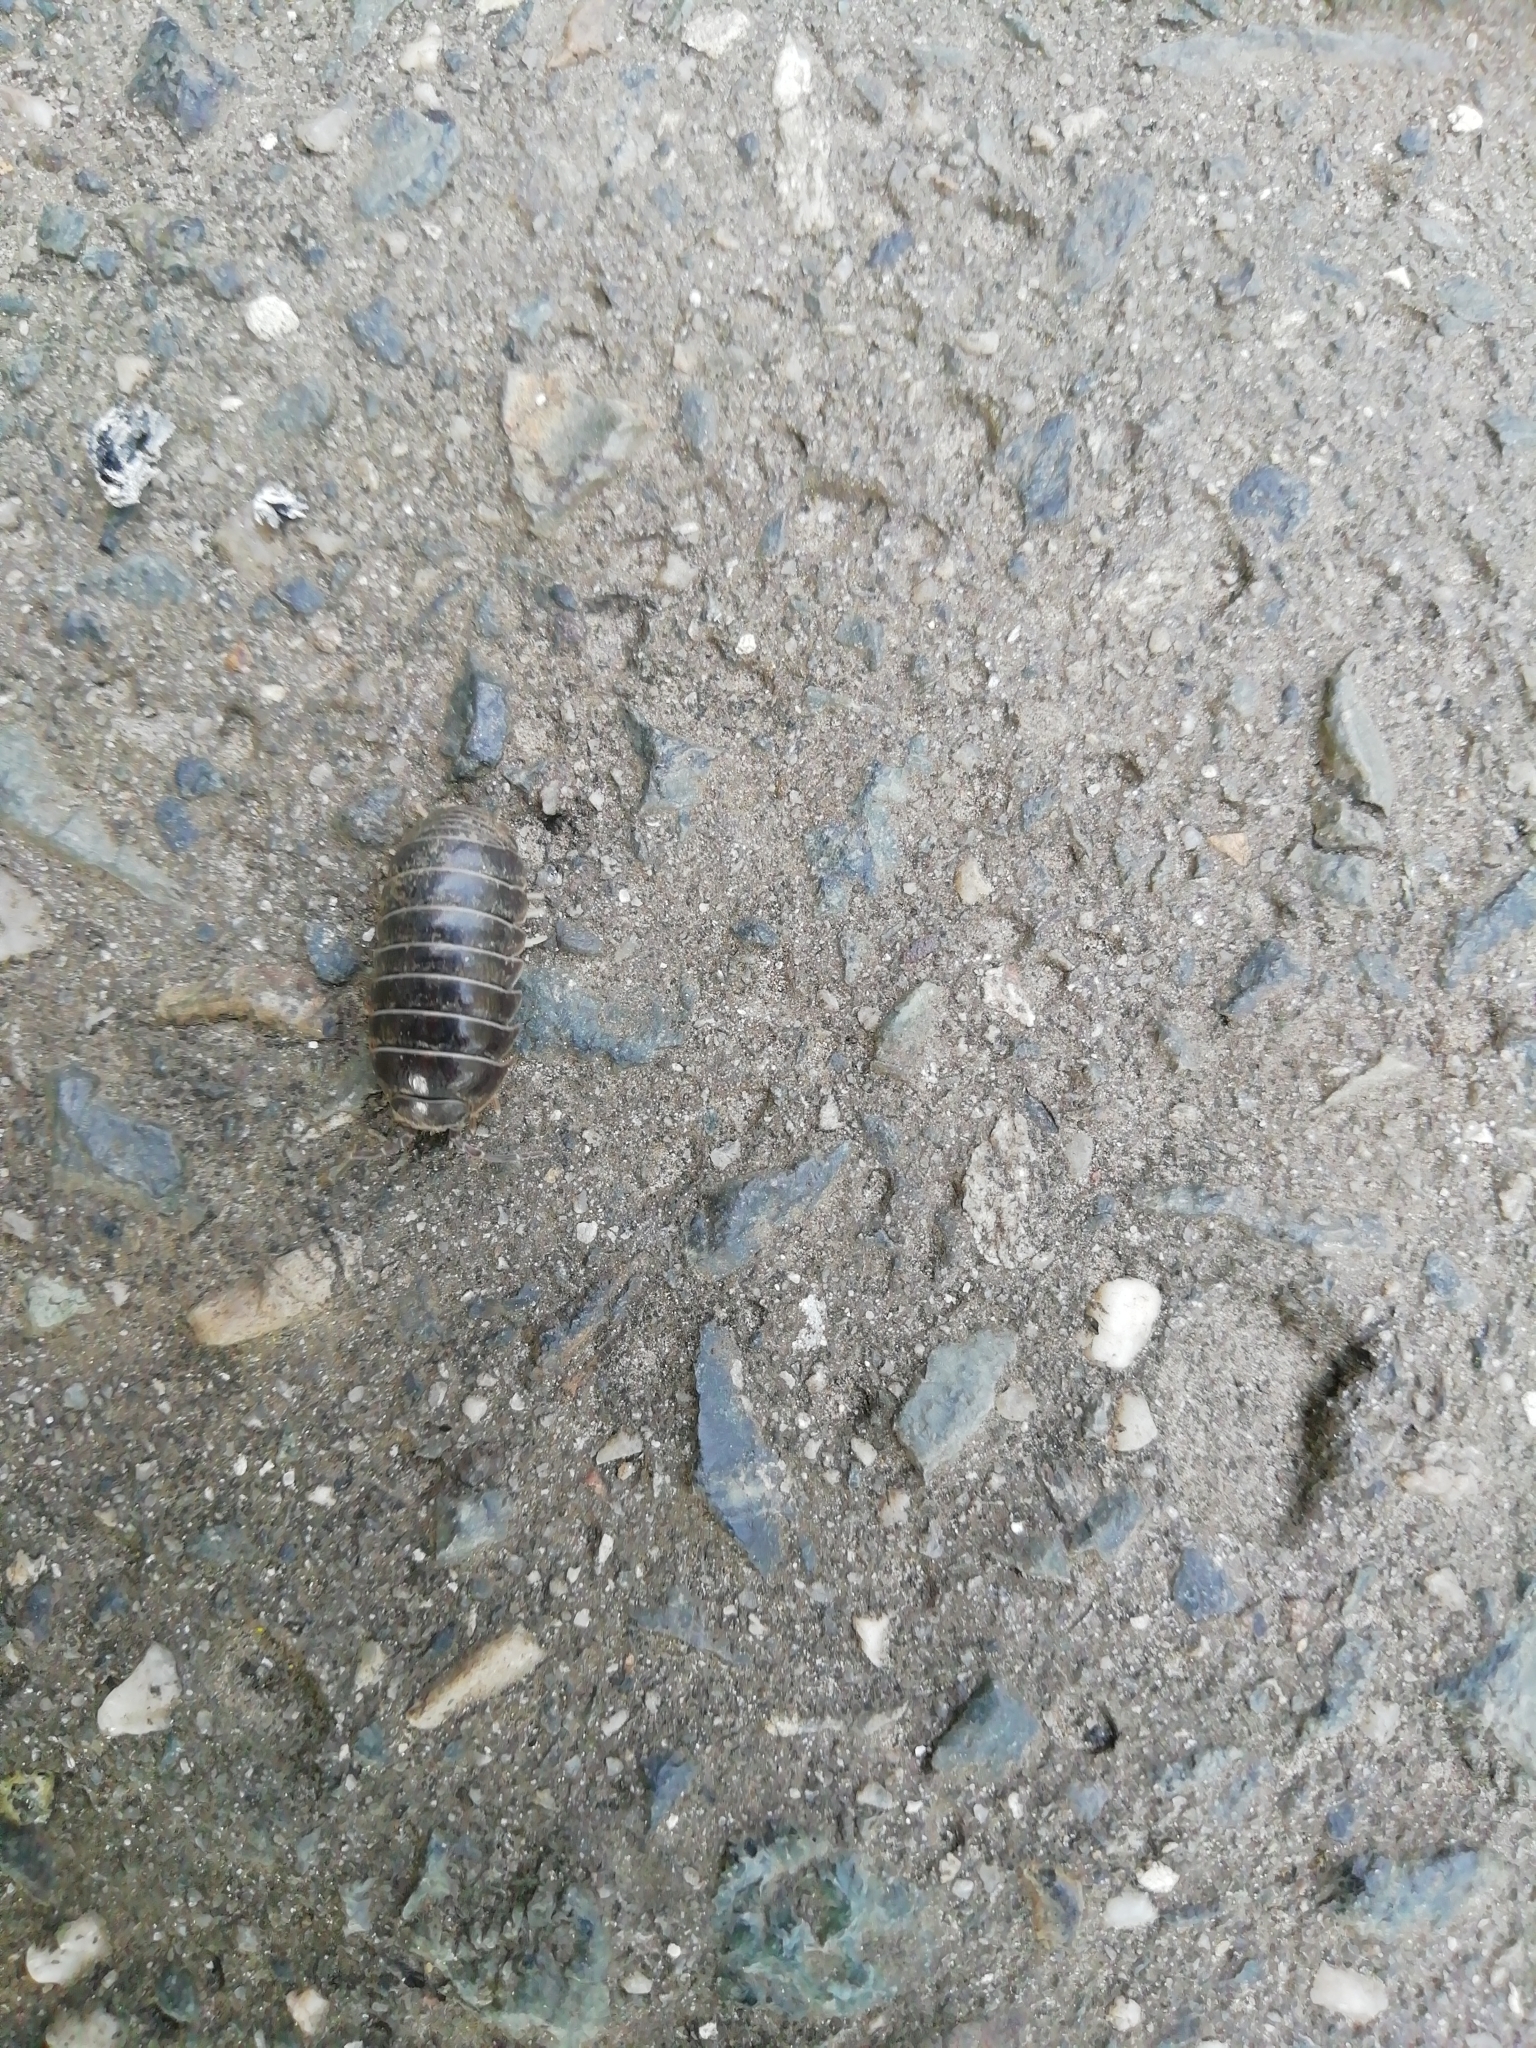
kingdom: Animalia
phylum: Arthropoda
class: Malacostraca
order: Isopoda
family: Armadillidiidae
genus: Armadillidium
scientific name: Armadillidium vulgare
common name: Common pill woodlouse
